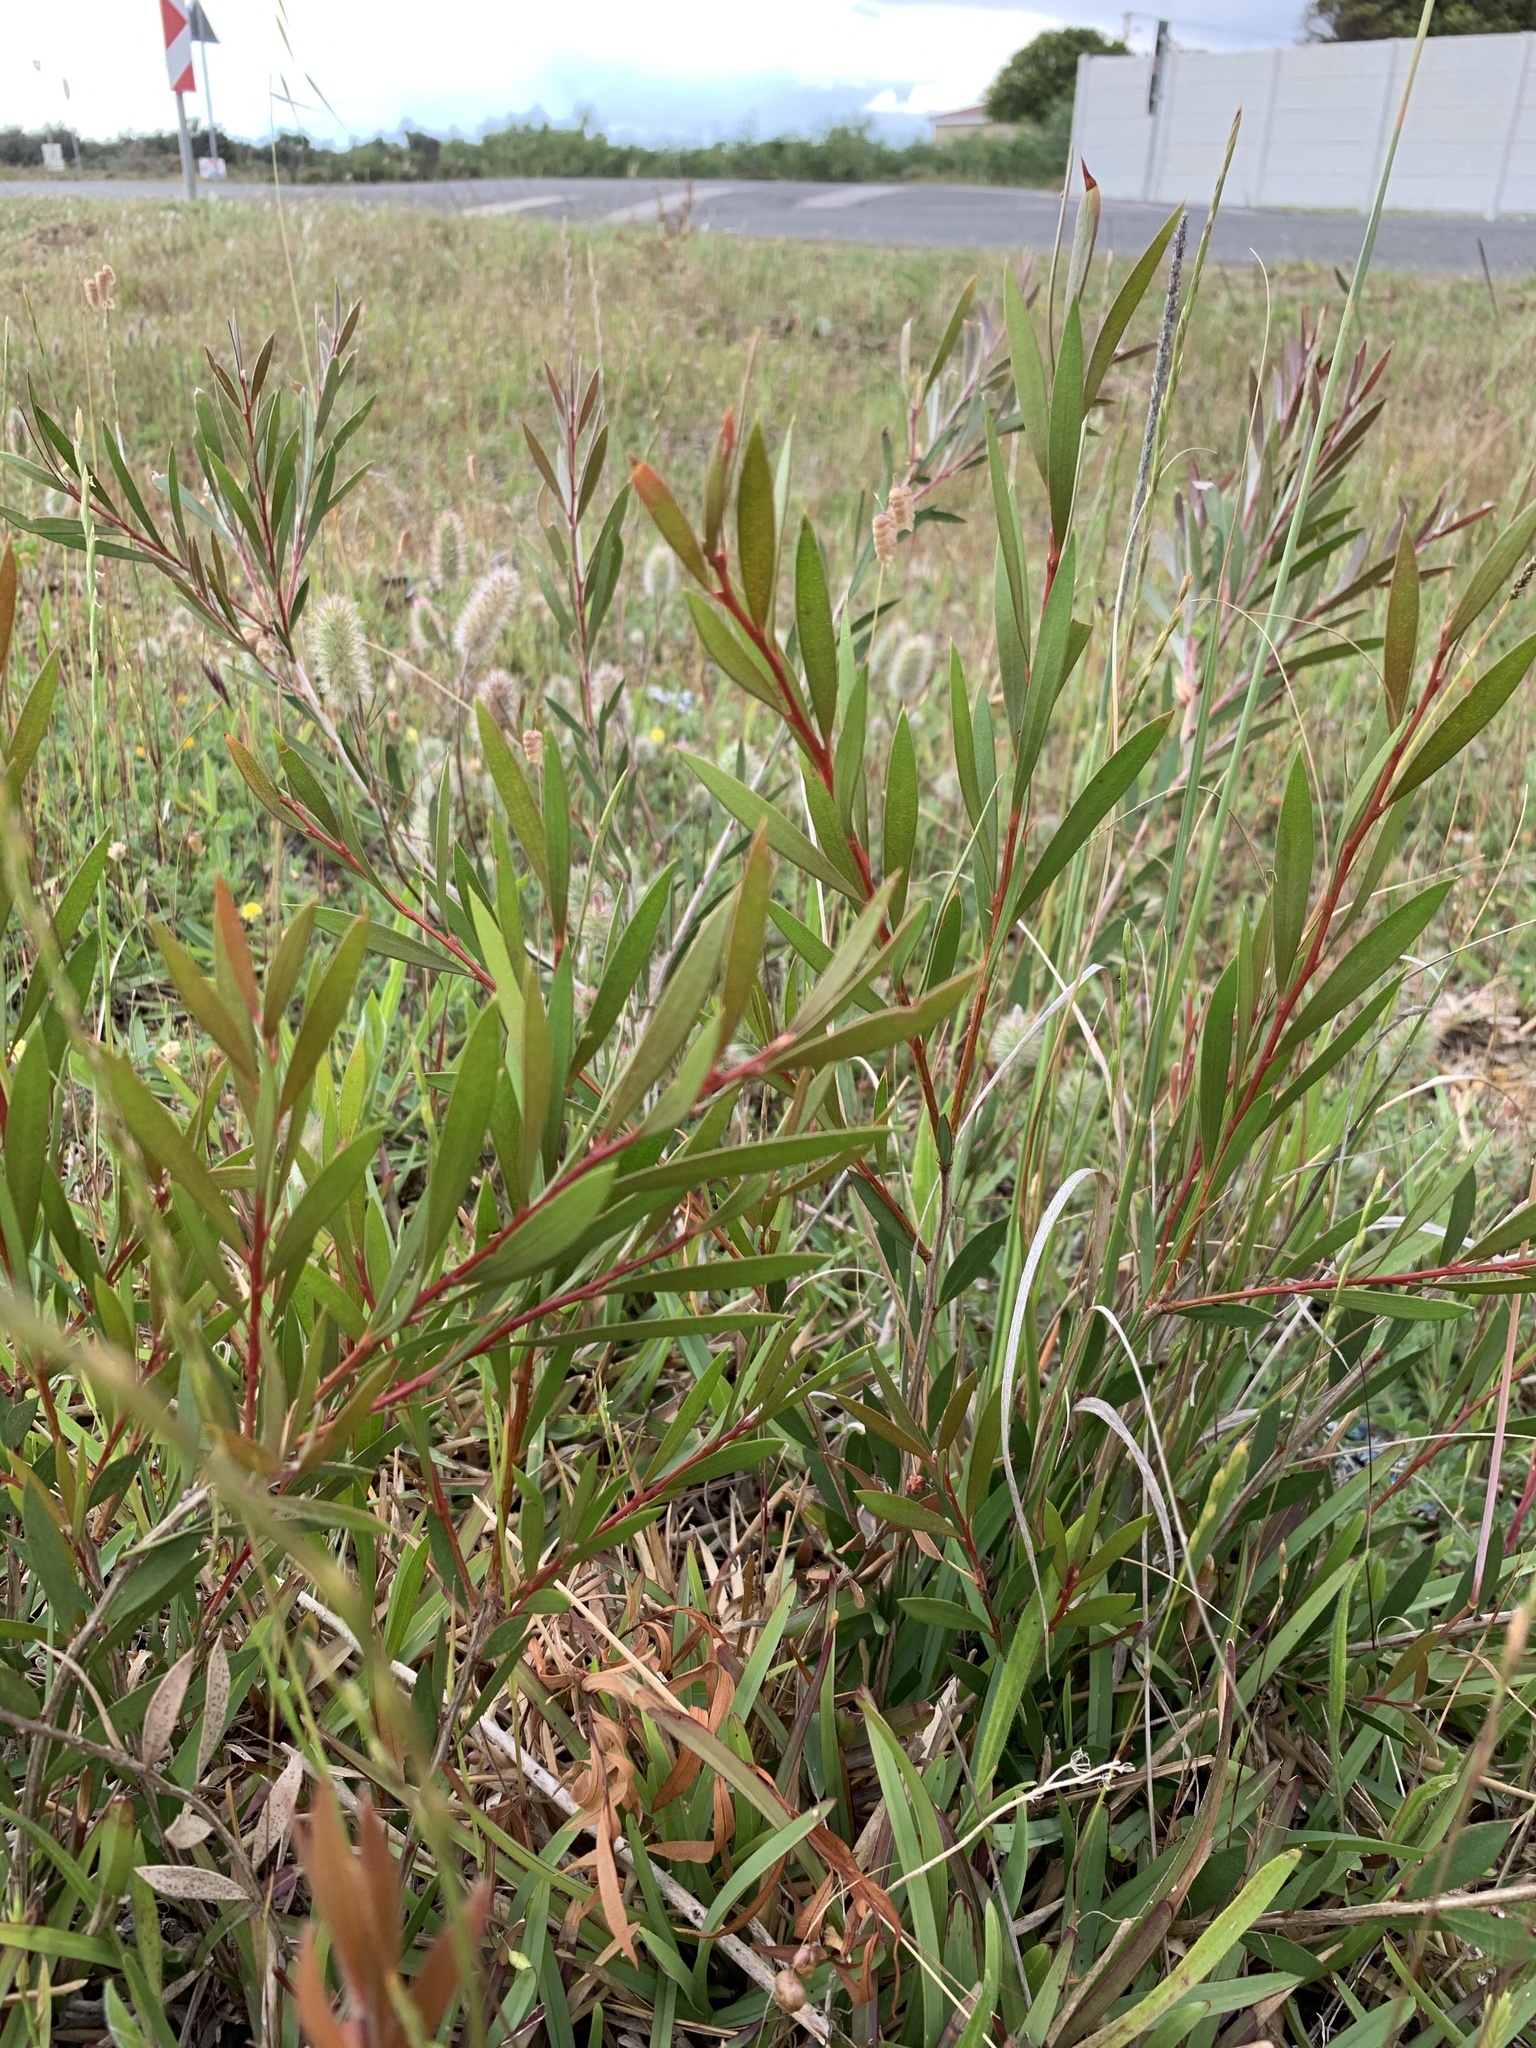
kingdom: Plantae
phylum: Tracheophyta
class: Magnoliopsida
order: Myrtales
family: Myrtaceae
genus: Callistemon
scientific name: Callistemon viminalis
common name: Drooping bottlebrush
